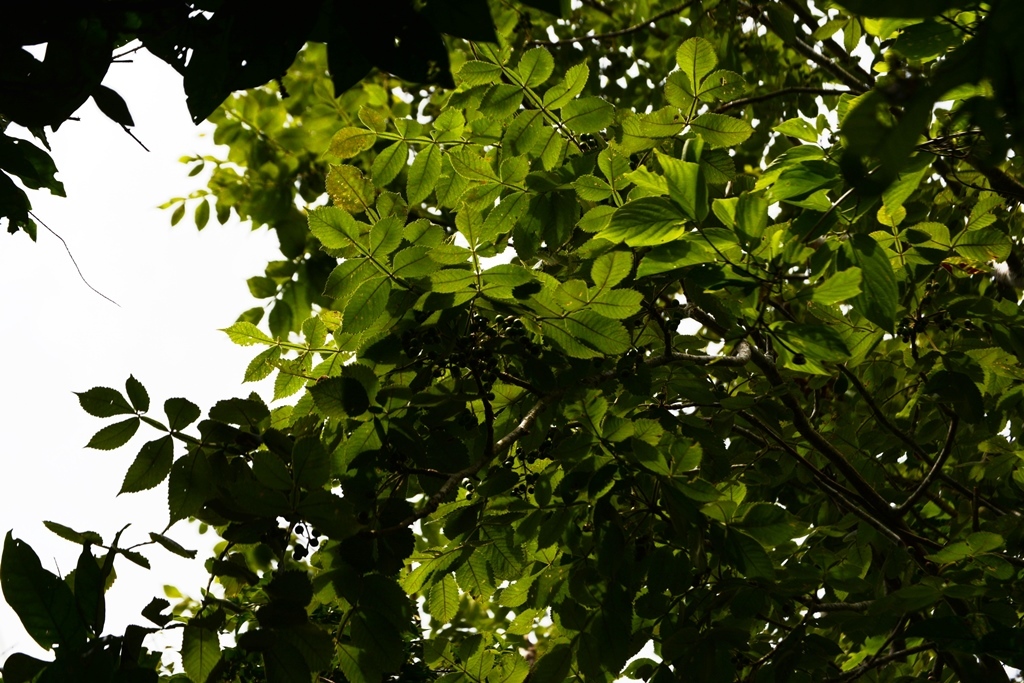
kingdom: Plantae
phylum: Tracheophyta
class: Magnoliopsida
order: Sapindales
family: Burseraceae
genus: Bursera
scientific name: Bursera excelsa
